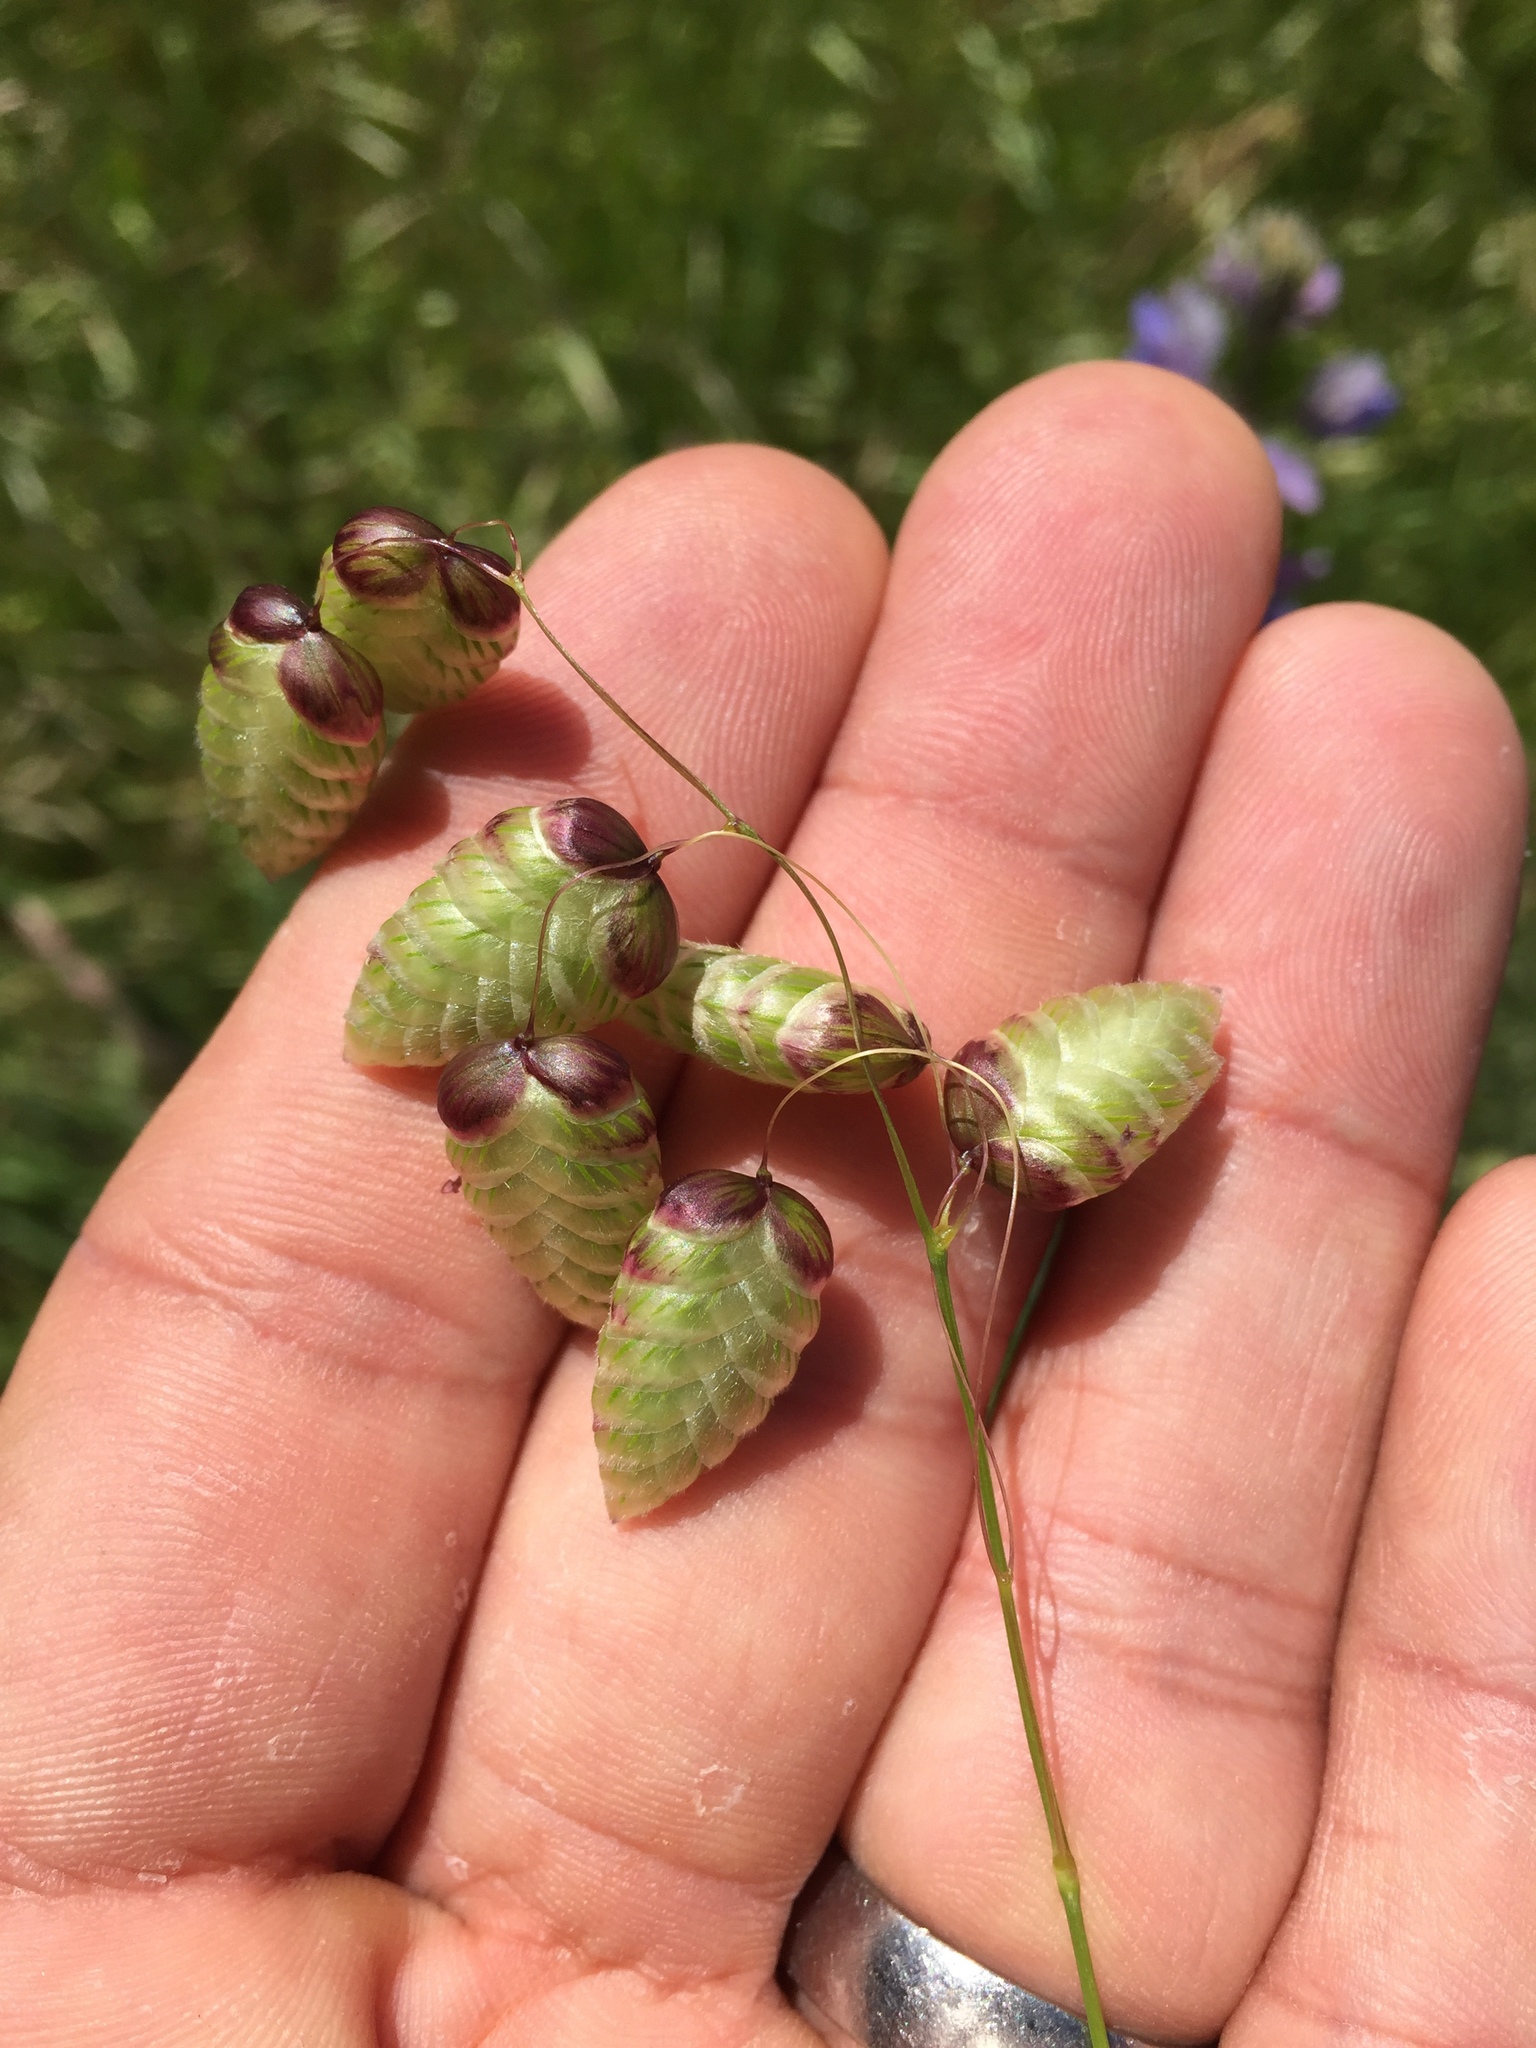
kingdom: Plantae
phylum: Tracheophyta
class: Liliopsida
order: Poales
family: Poaceae
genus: Briza
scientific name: Briza maxima
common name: Big quakinggrass
